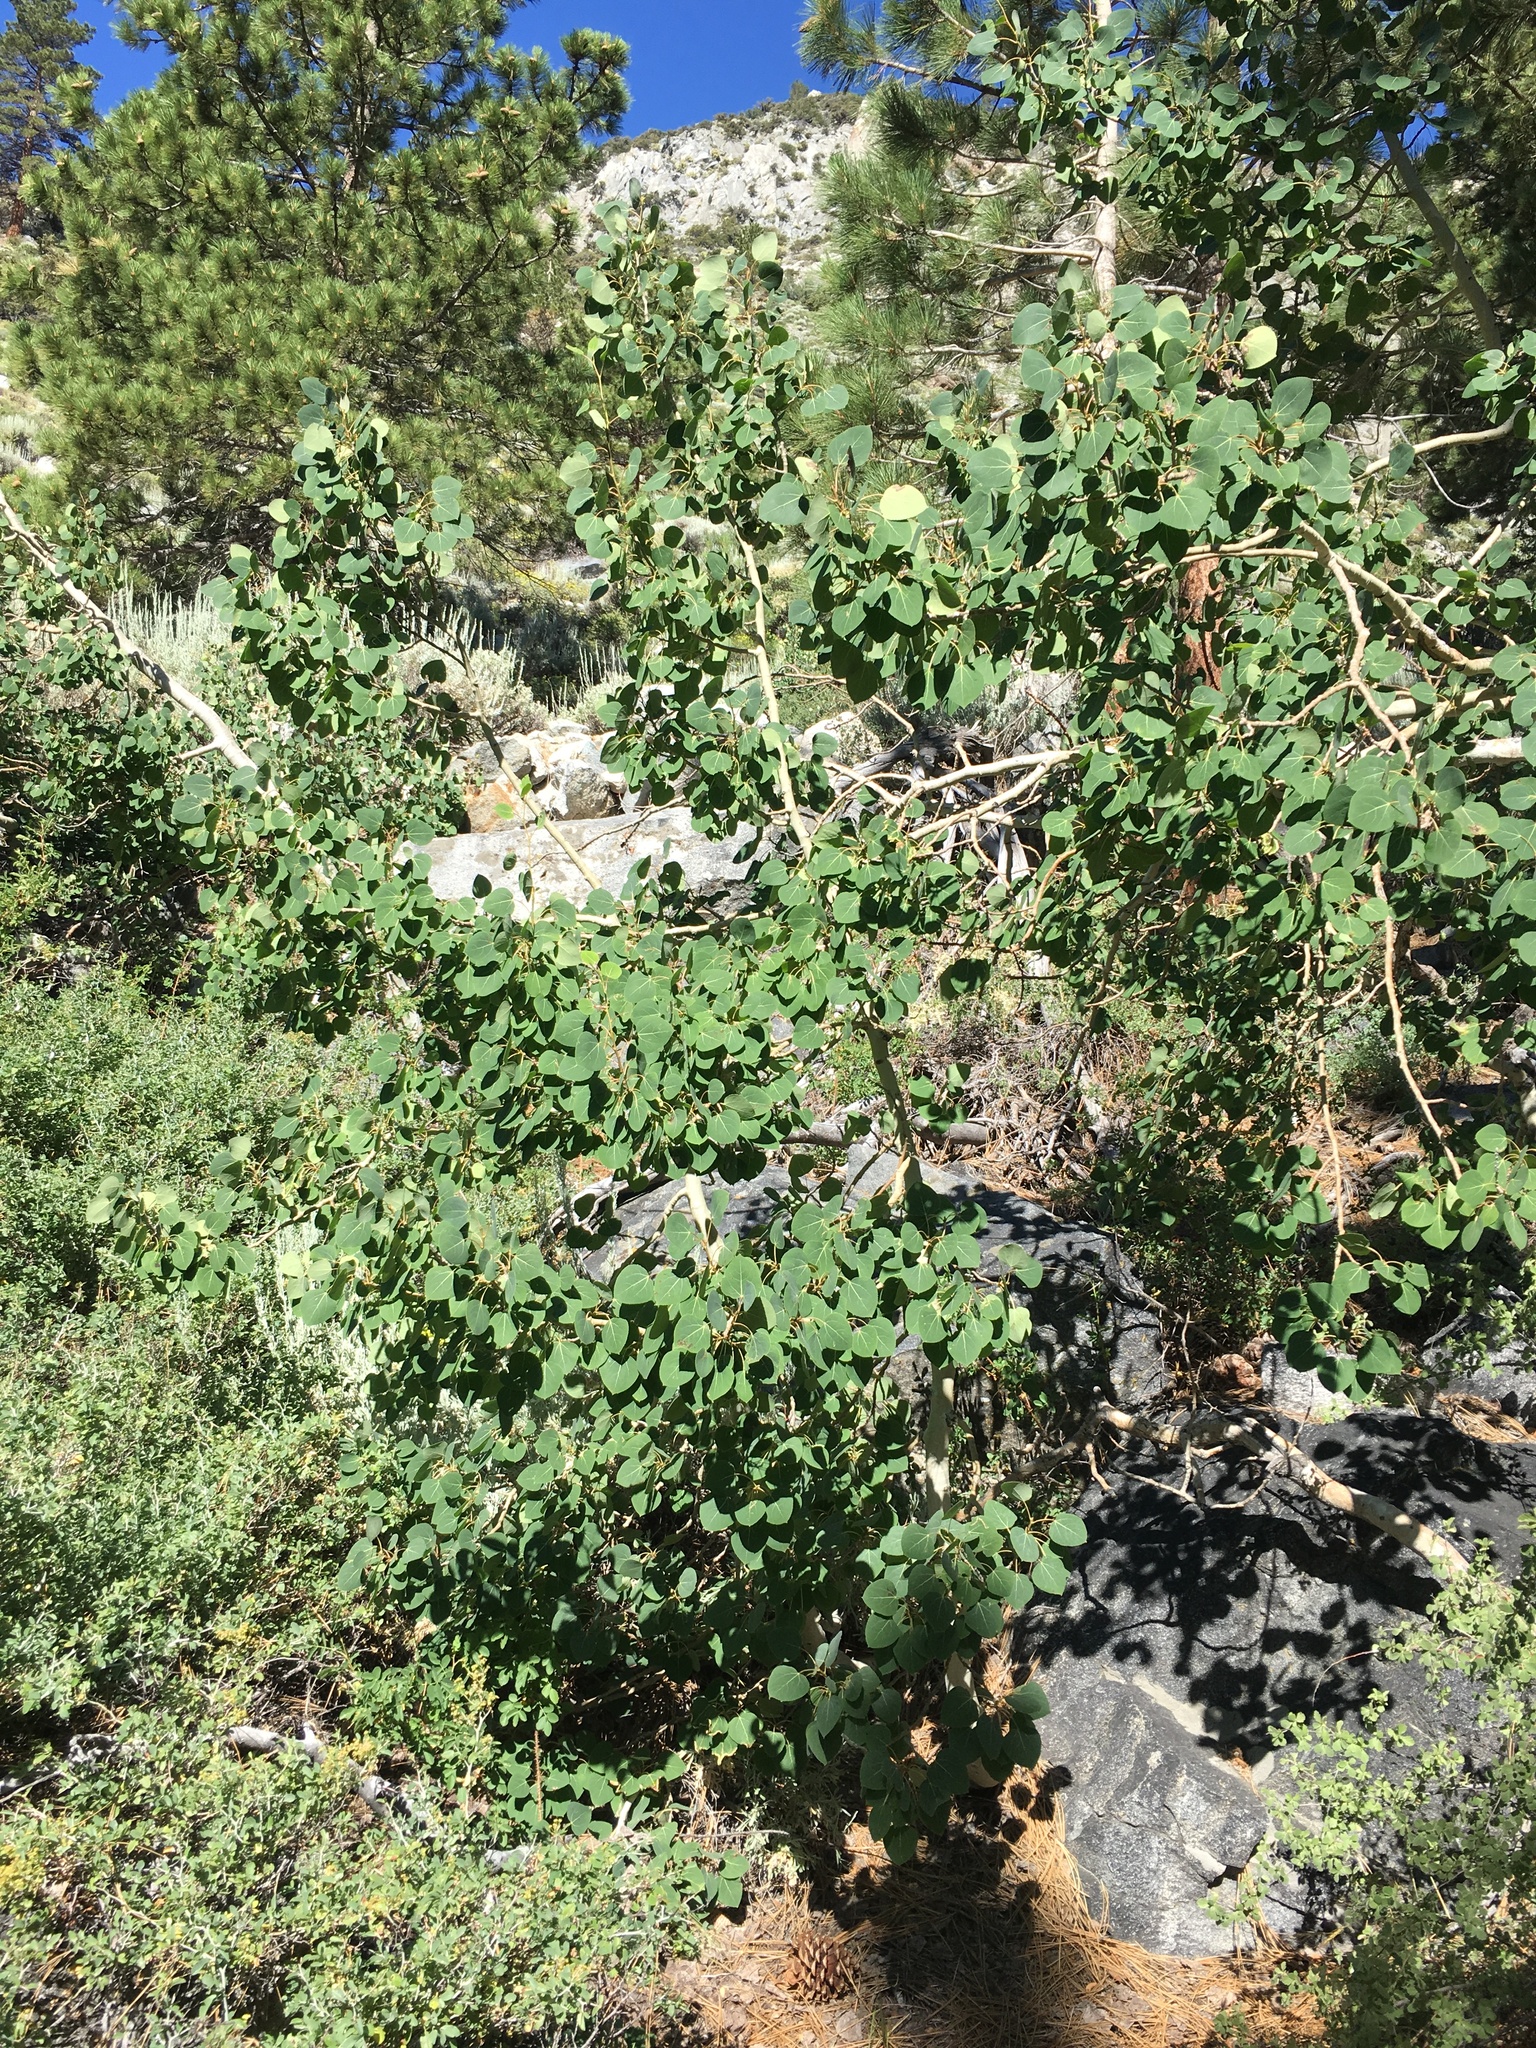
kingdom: Plantae
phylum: Tracheophyta
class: Magnoliopsida
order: Malpighiales
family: Salicaceae
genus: Populus
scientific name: Populus tremuloides
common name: Quaking aspen
